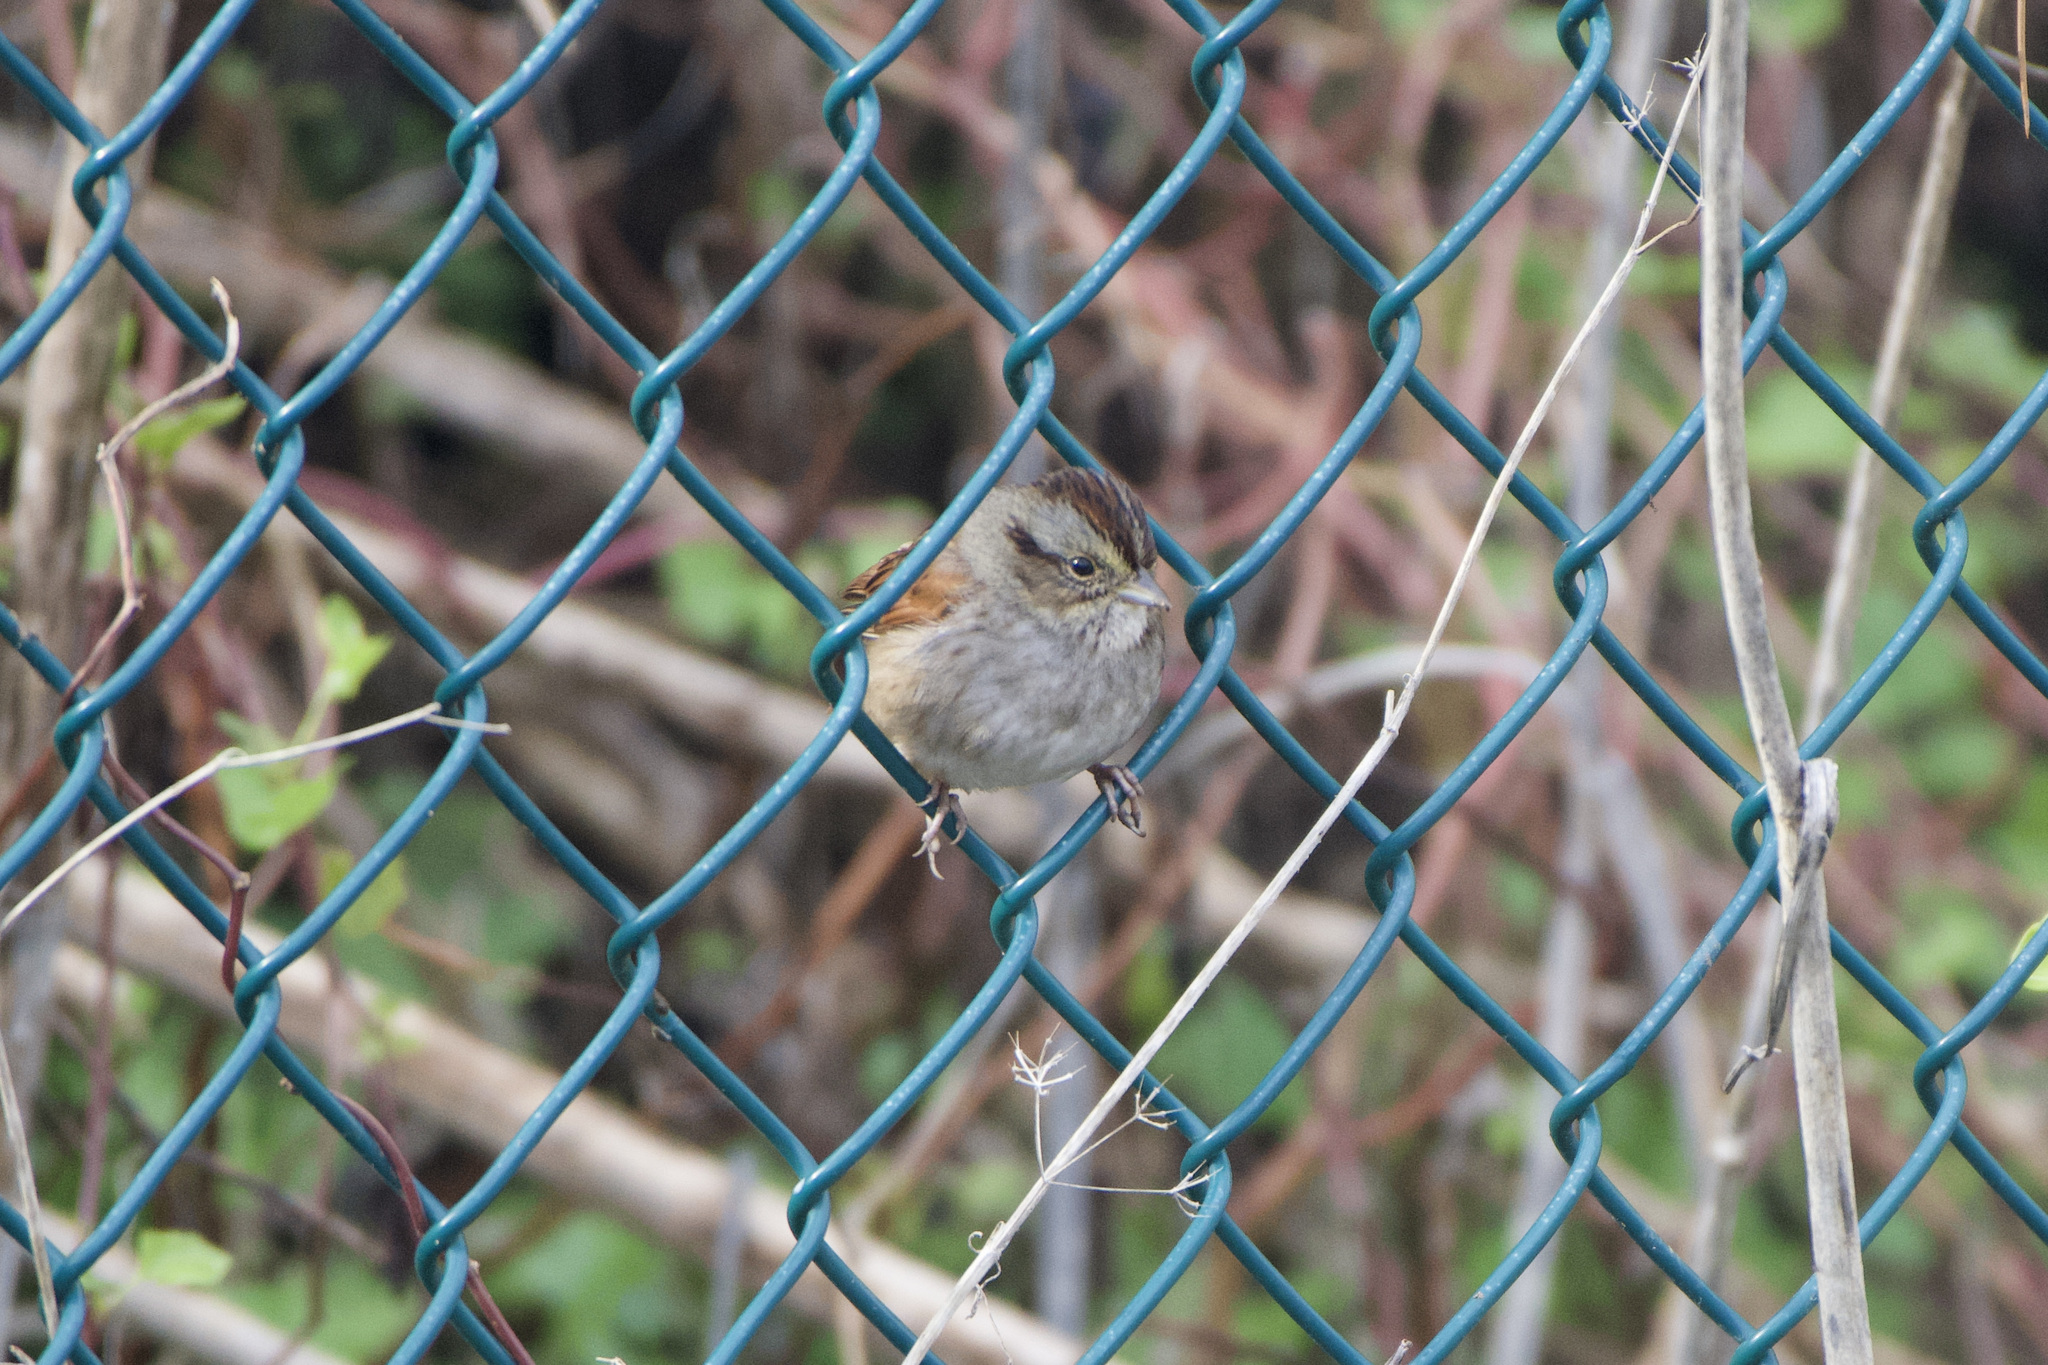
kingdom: Animalia
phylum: Chordata
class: Aves
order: Passeriformes
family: Passerellidae
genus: Melospiza
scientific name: Melospiza georgiana
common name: Swamp sparrow
